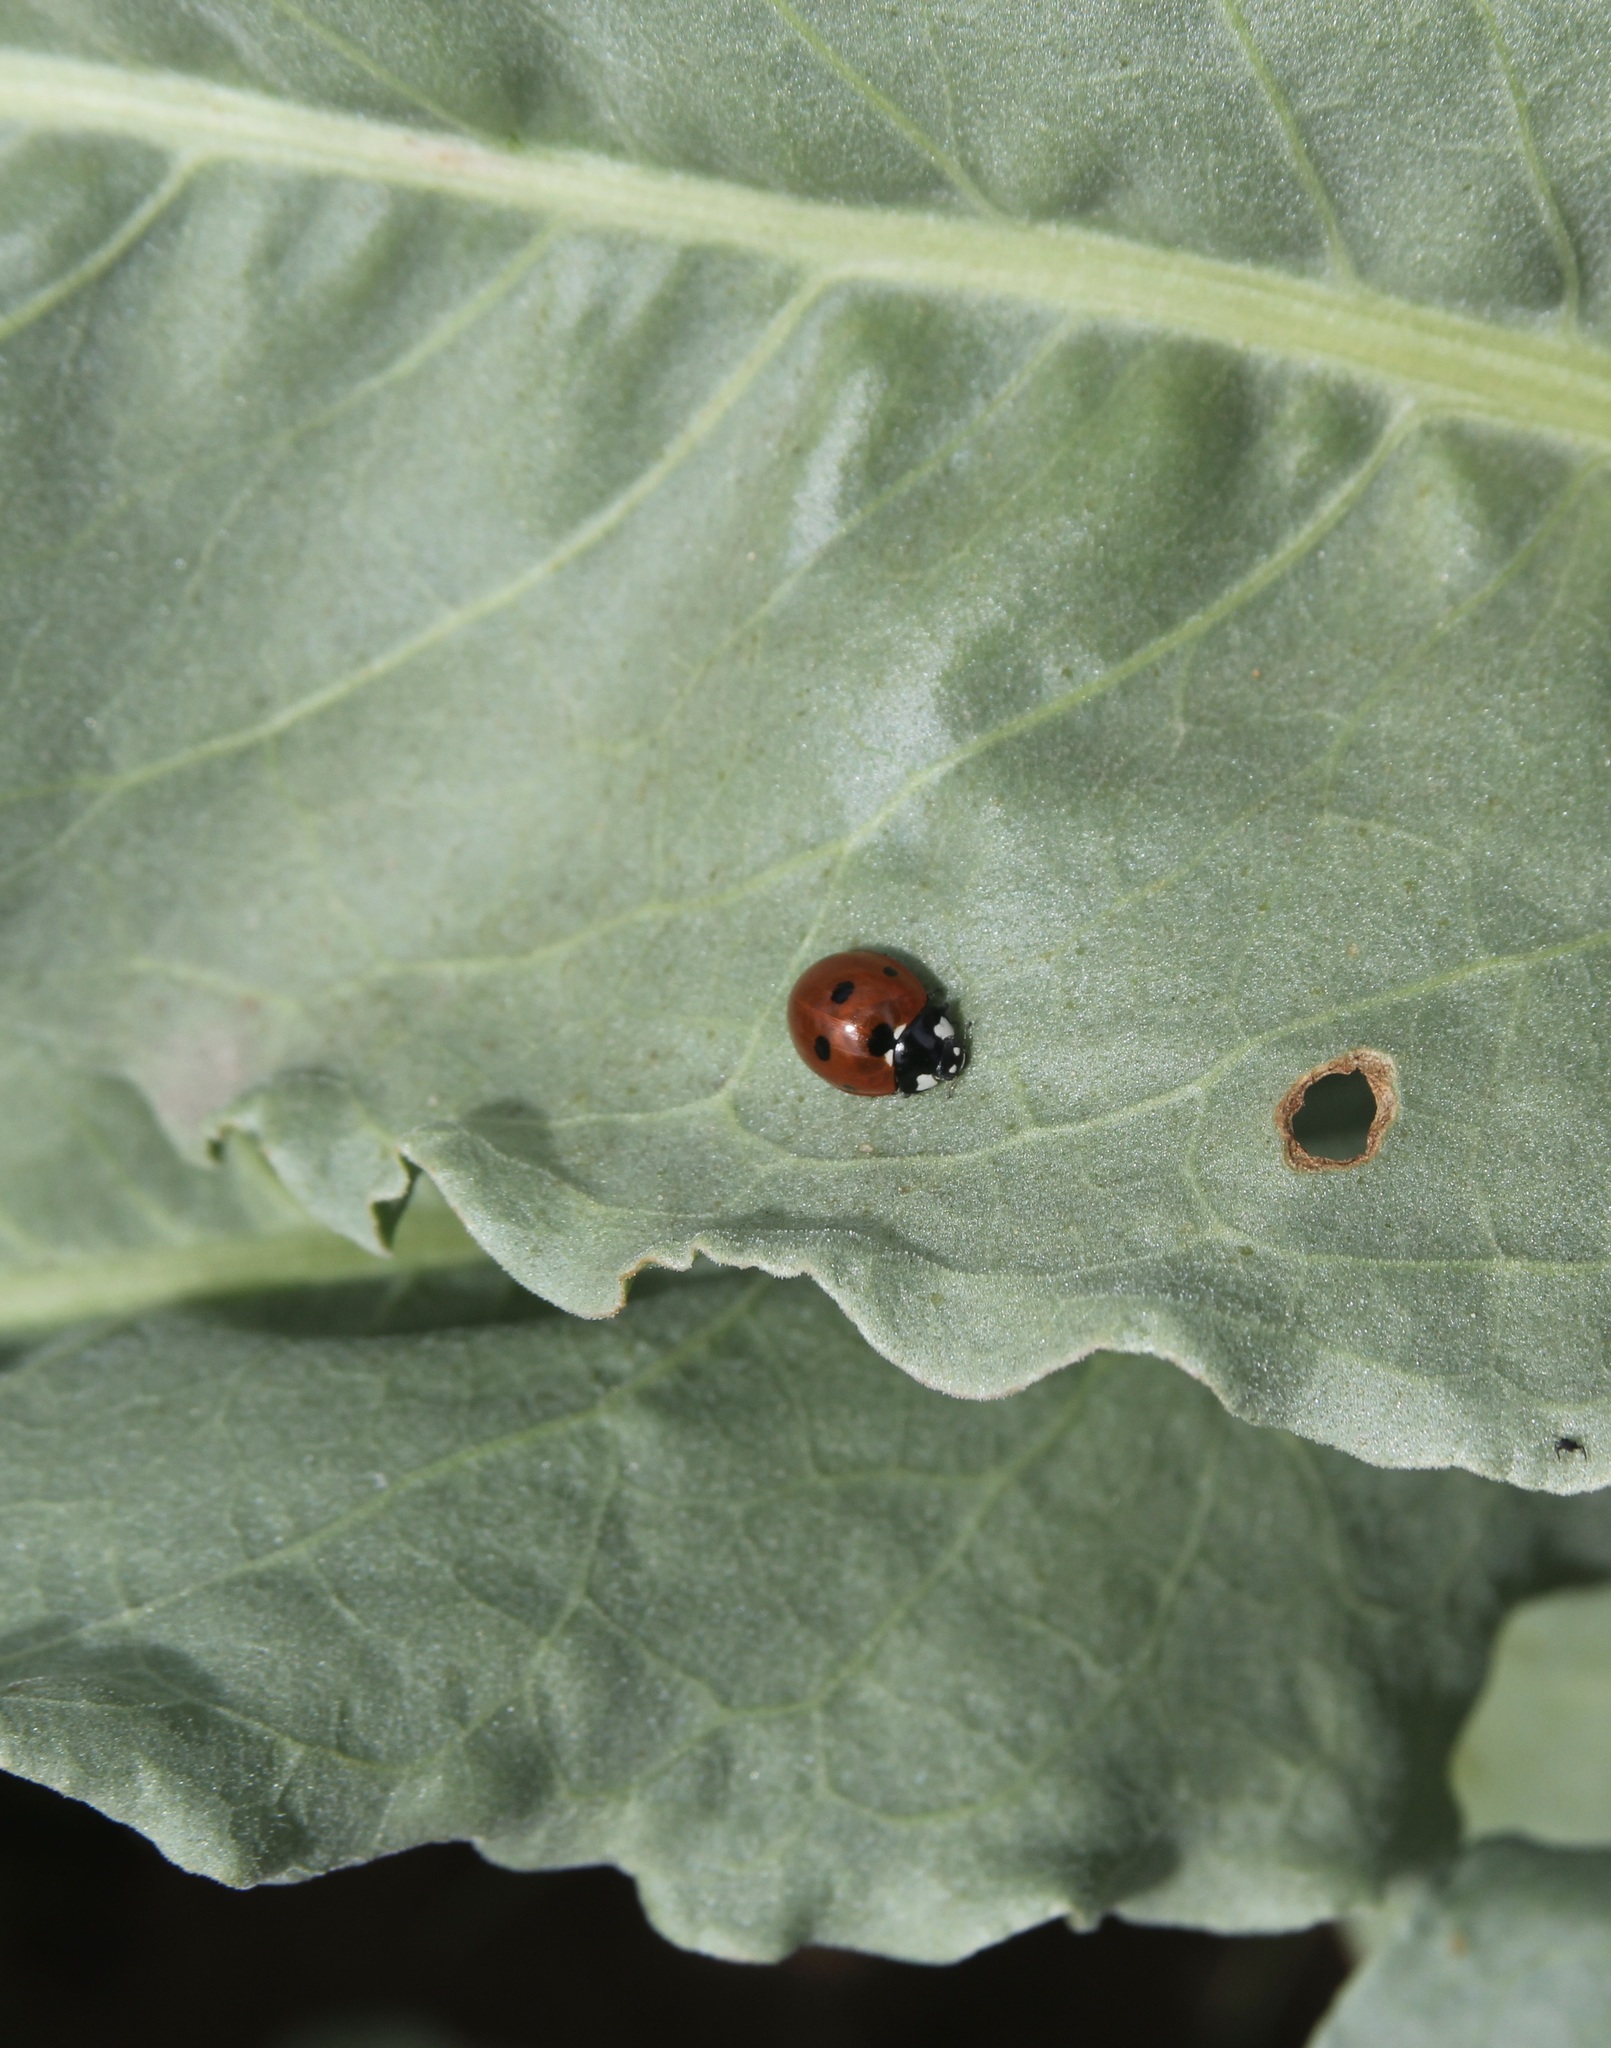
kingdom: Animalia
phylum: Arthropoda
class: Insecta
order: Coleoptera
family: Coccinellidae
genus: Coccinella
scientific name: Coccinella septempunctata
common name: Sevenspotted lady beetle
